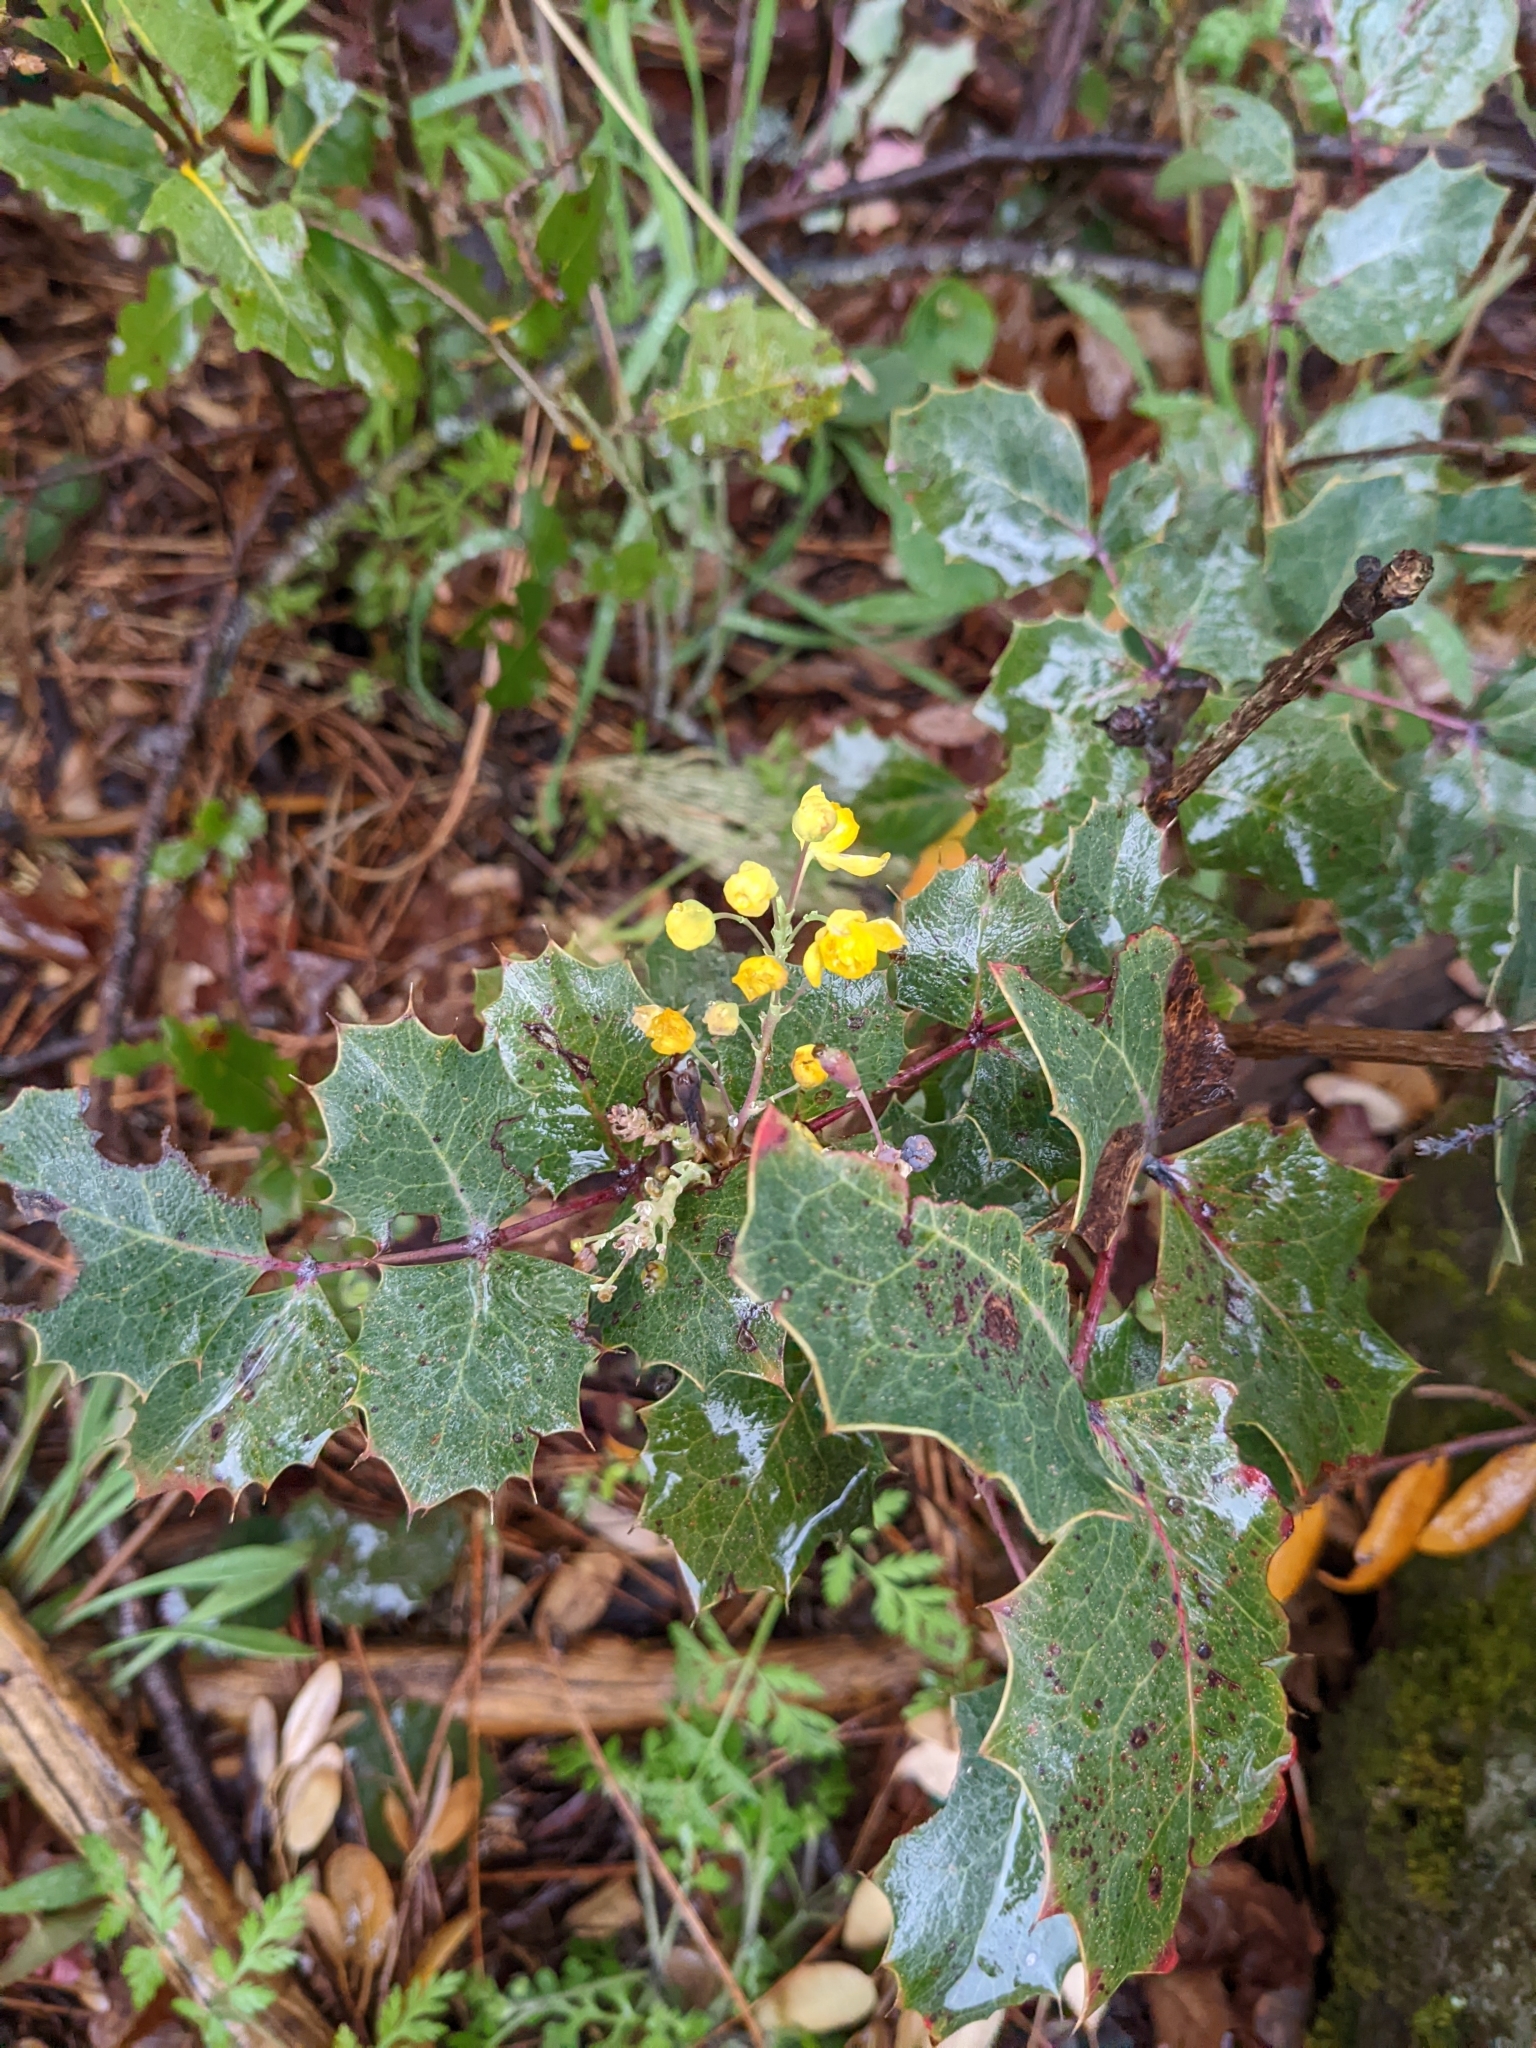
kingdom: Plantae
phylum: Tracheophyta
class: Magnoliopsida
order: Ranunculales
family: Berberidaceae
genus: Mahonia
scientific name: Mahonia dictyota
